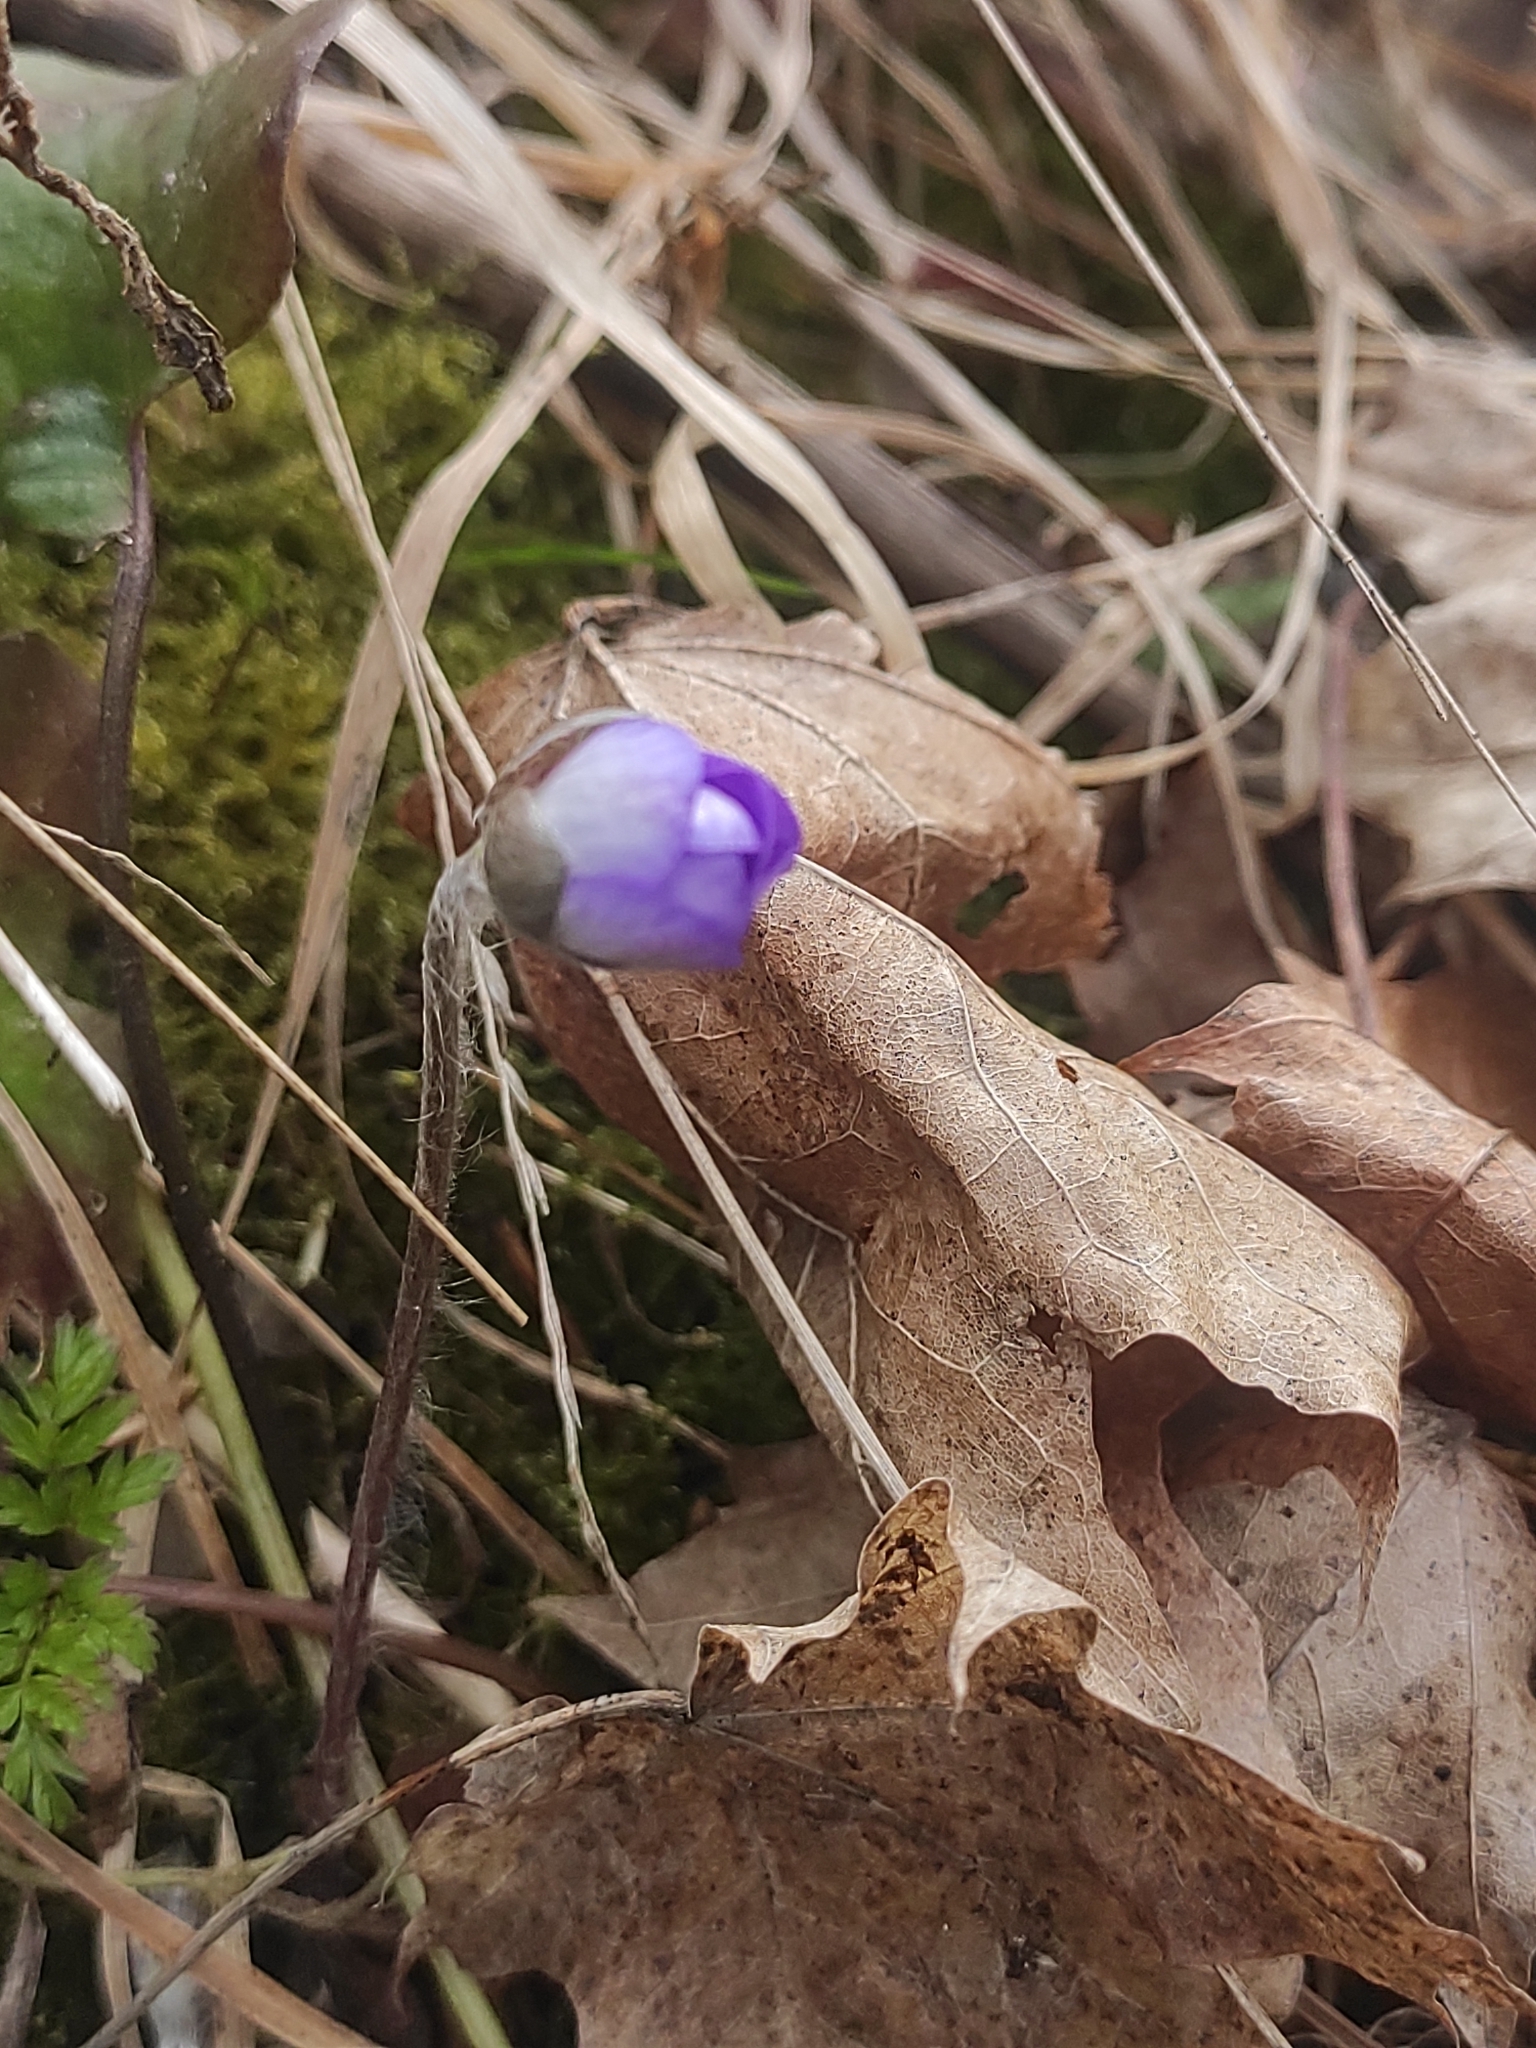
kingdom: Plantae
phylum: Tracheophyta
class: Magnoliopsida
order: Ranunculales
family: Ranunculaceae
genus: Hepatica
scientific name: Hepatica nobilis
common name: Liverleaf
